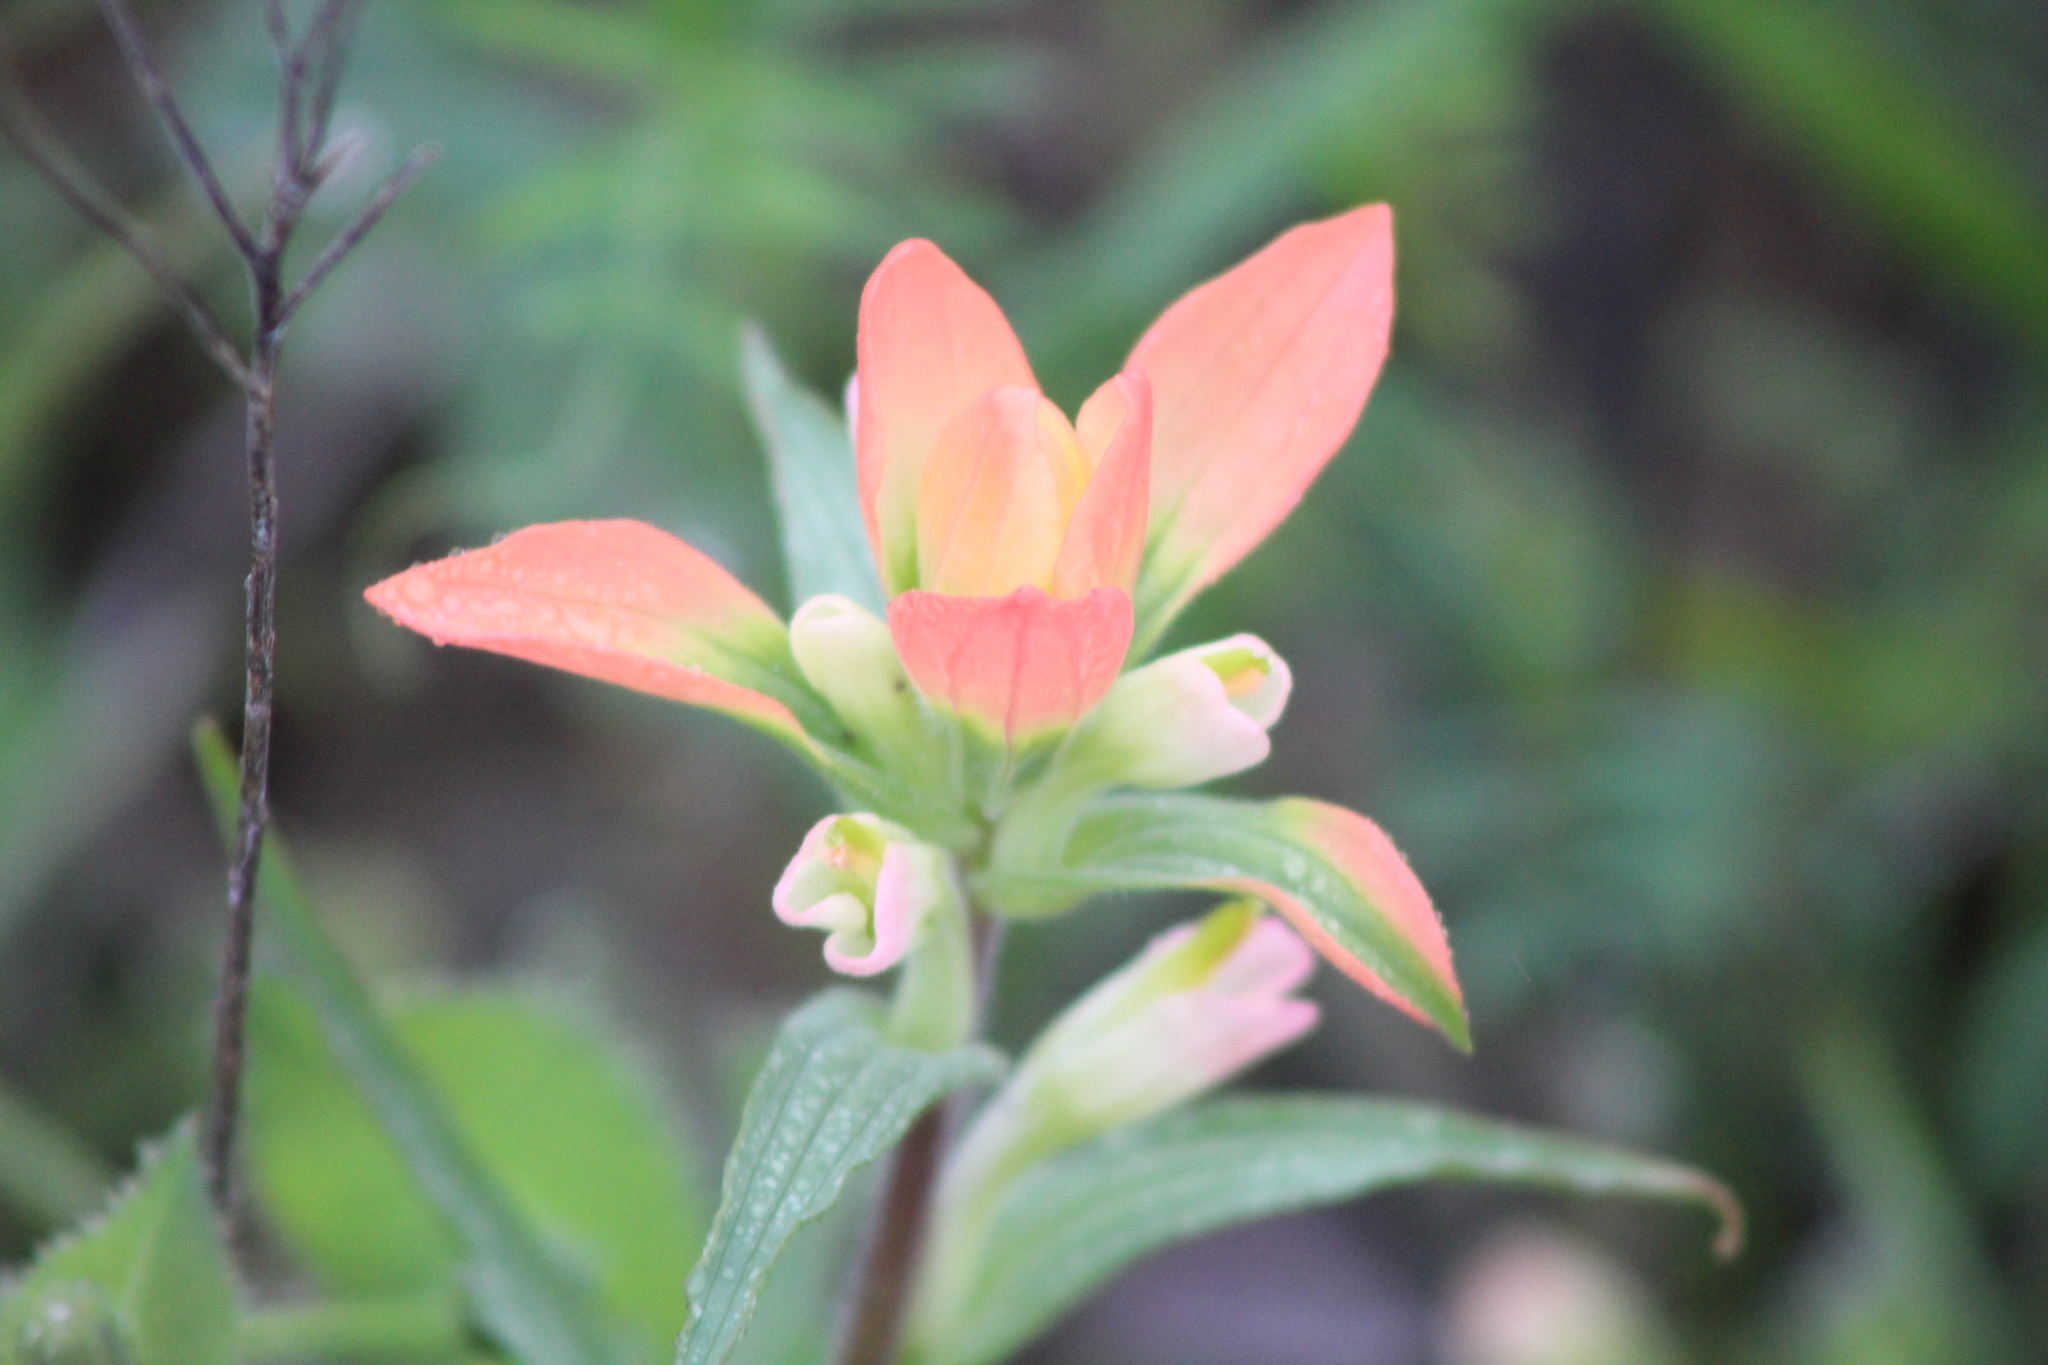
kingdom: Plantae
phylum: Tracheophyta
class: Magnoliopsida
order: Lamiales
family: Orobanchaceae
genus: Castilleja
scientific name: Castilleja indivisa
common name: Texas paintbrush
